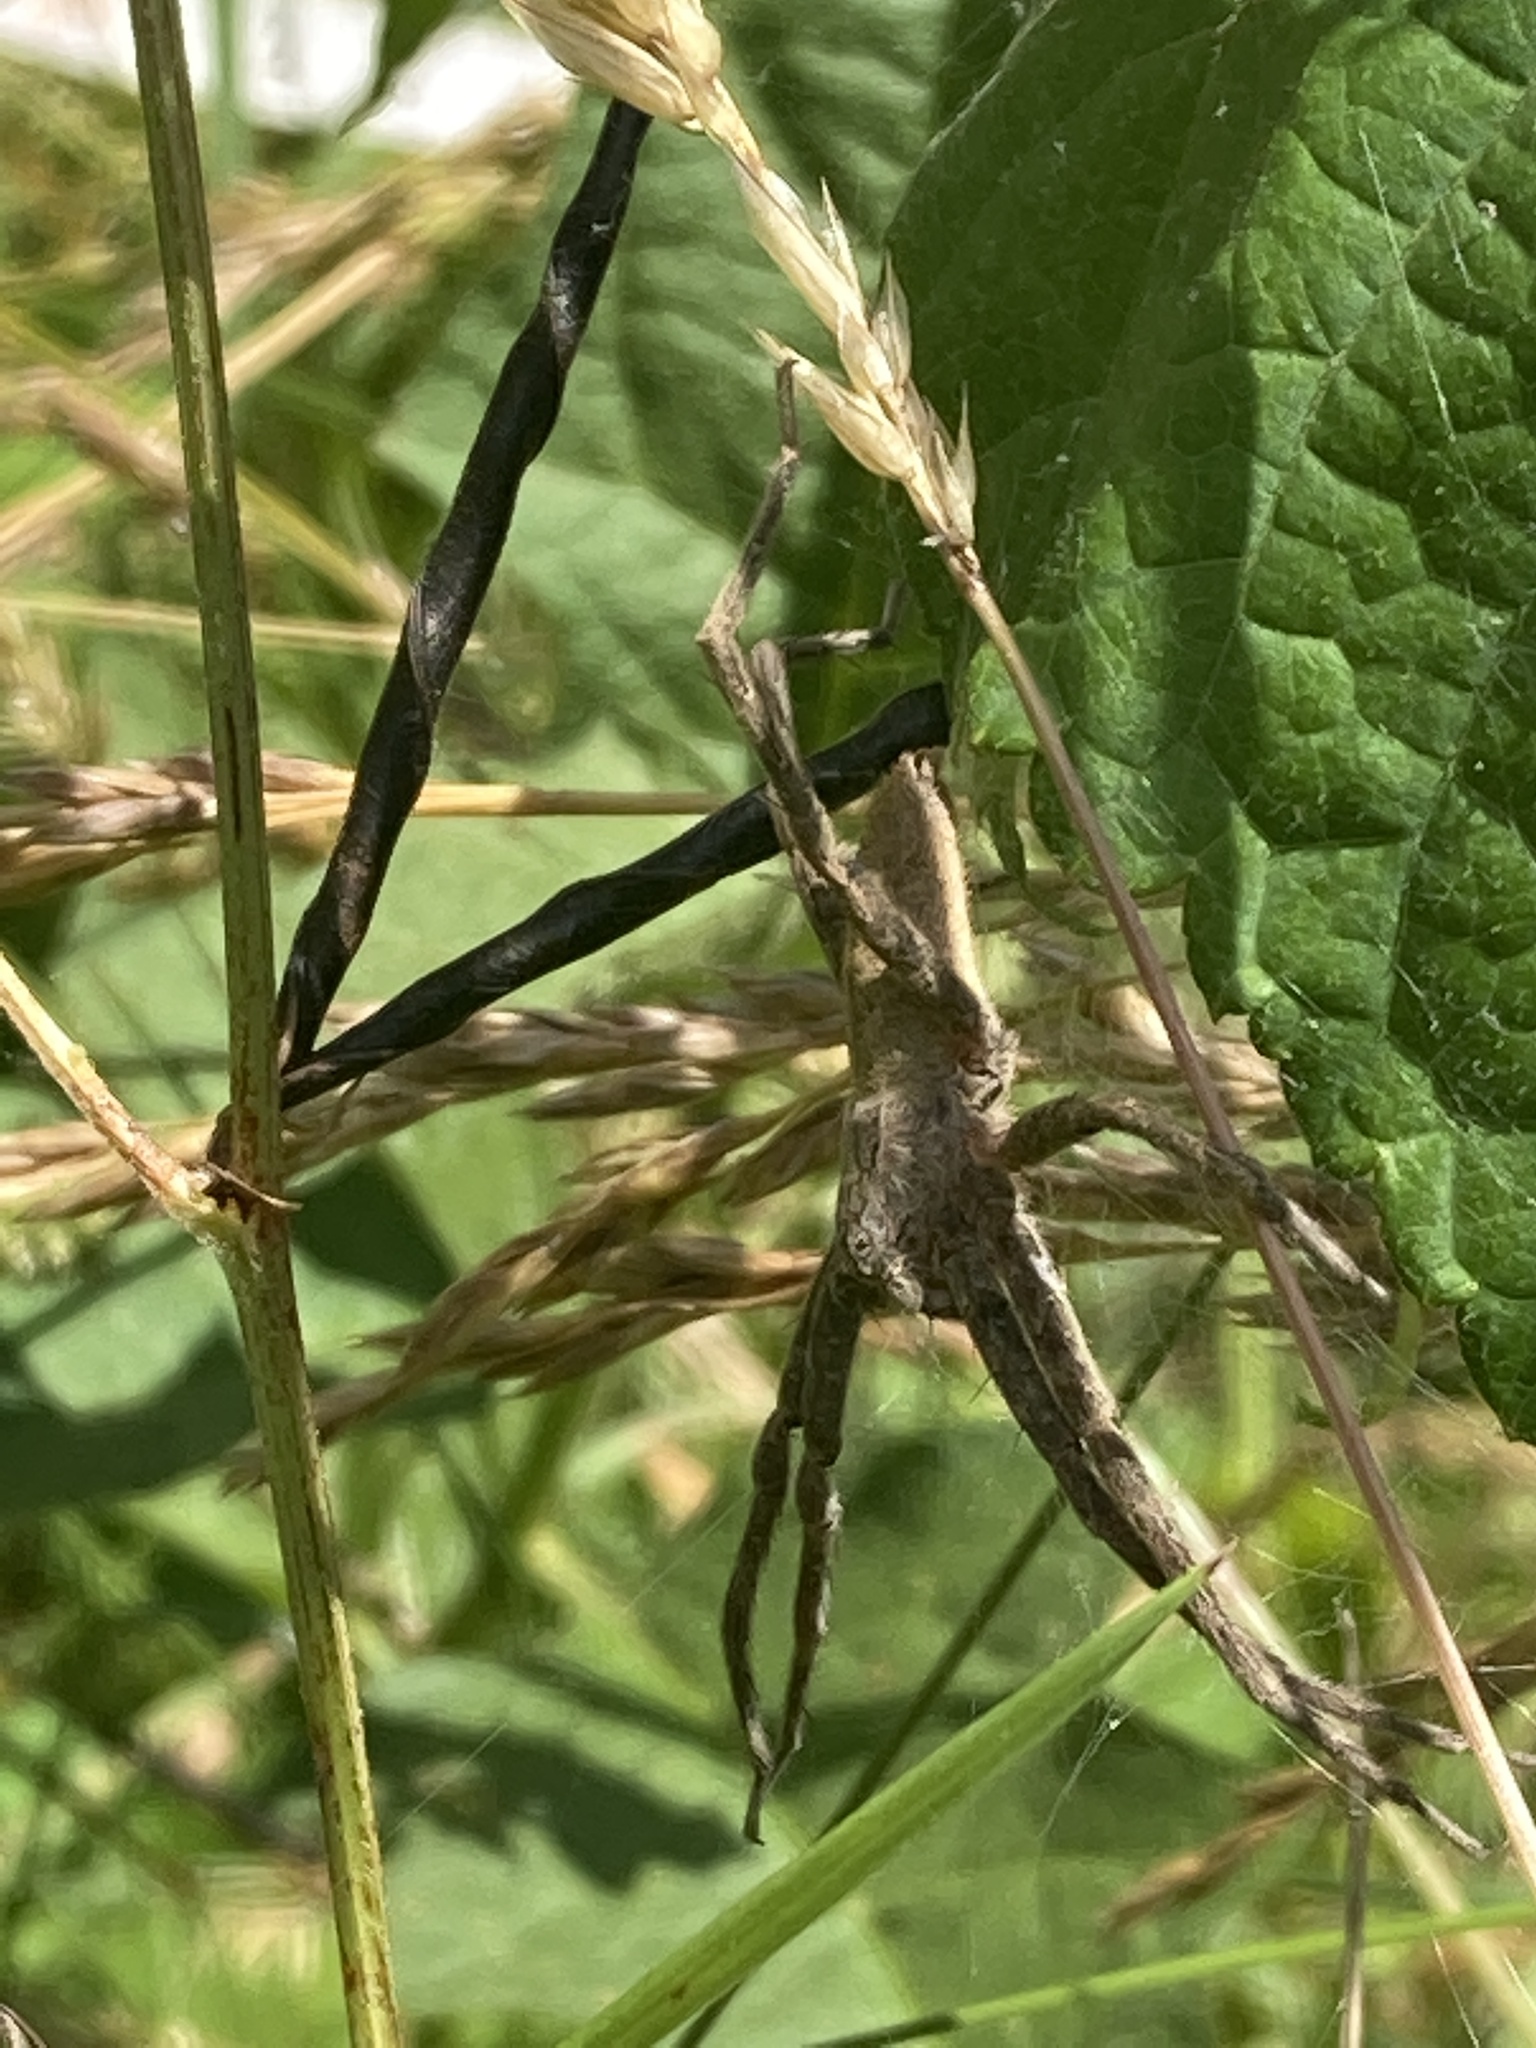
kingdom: Animalia
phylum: Arthropoda
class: Arachnida
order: Araneae
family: Pisauridae
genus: Pisaurina
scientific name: Pisaurina mira
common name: American nursery web spider
